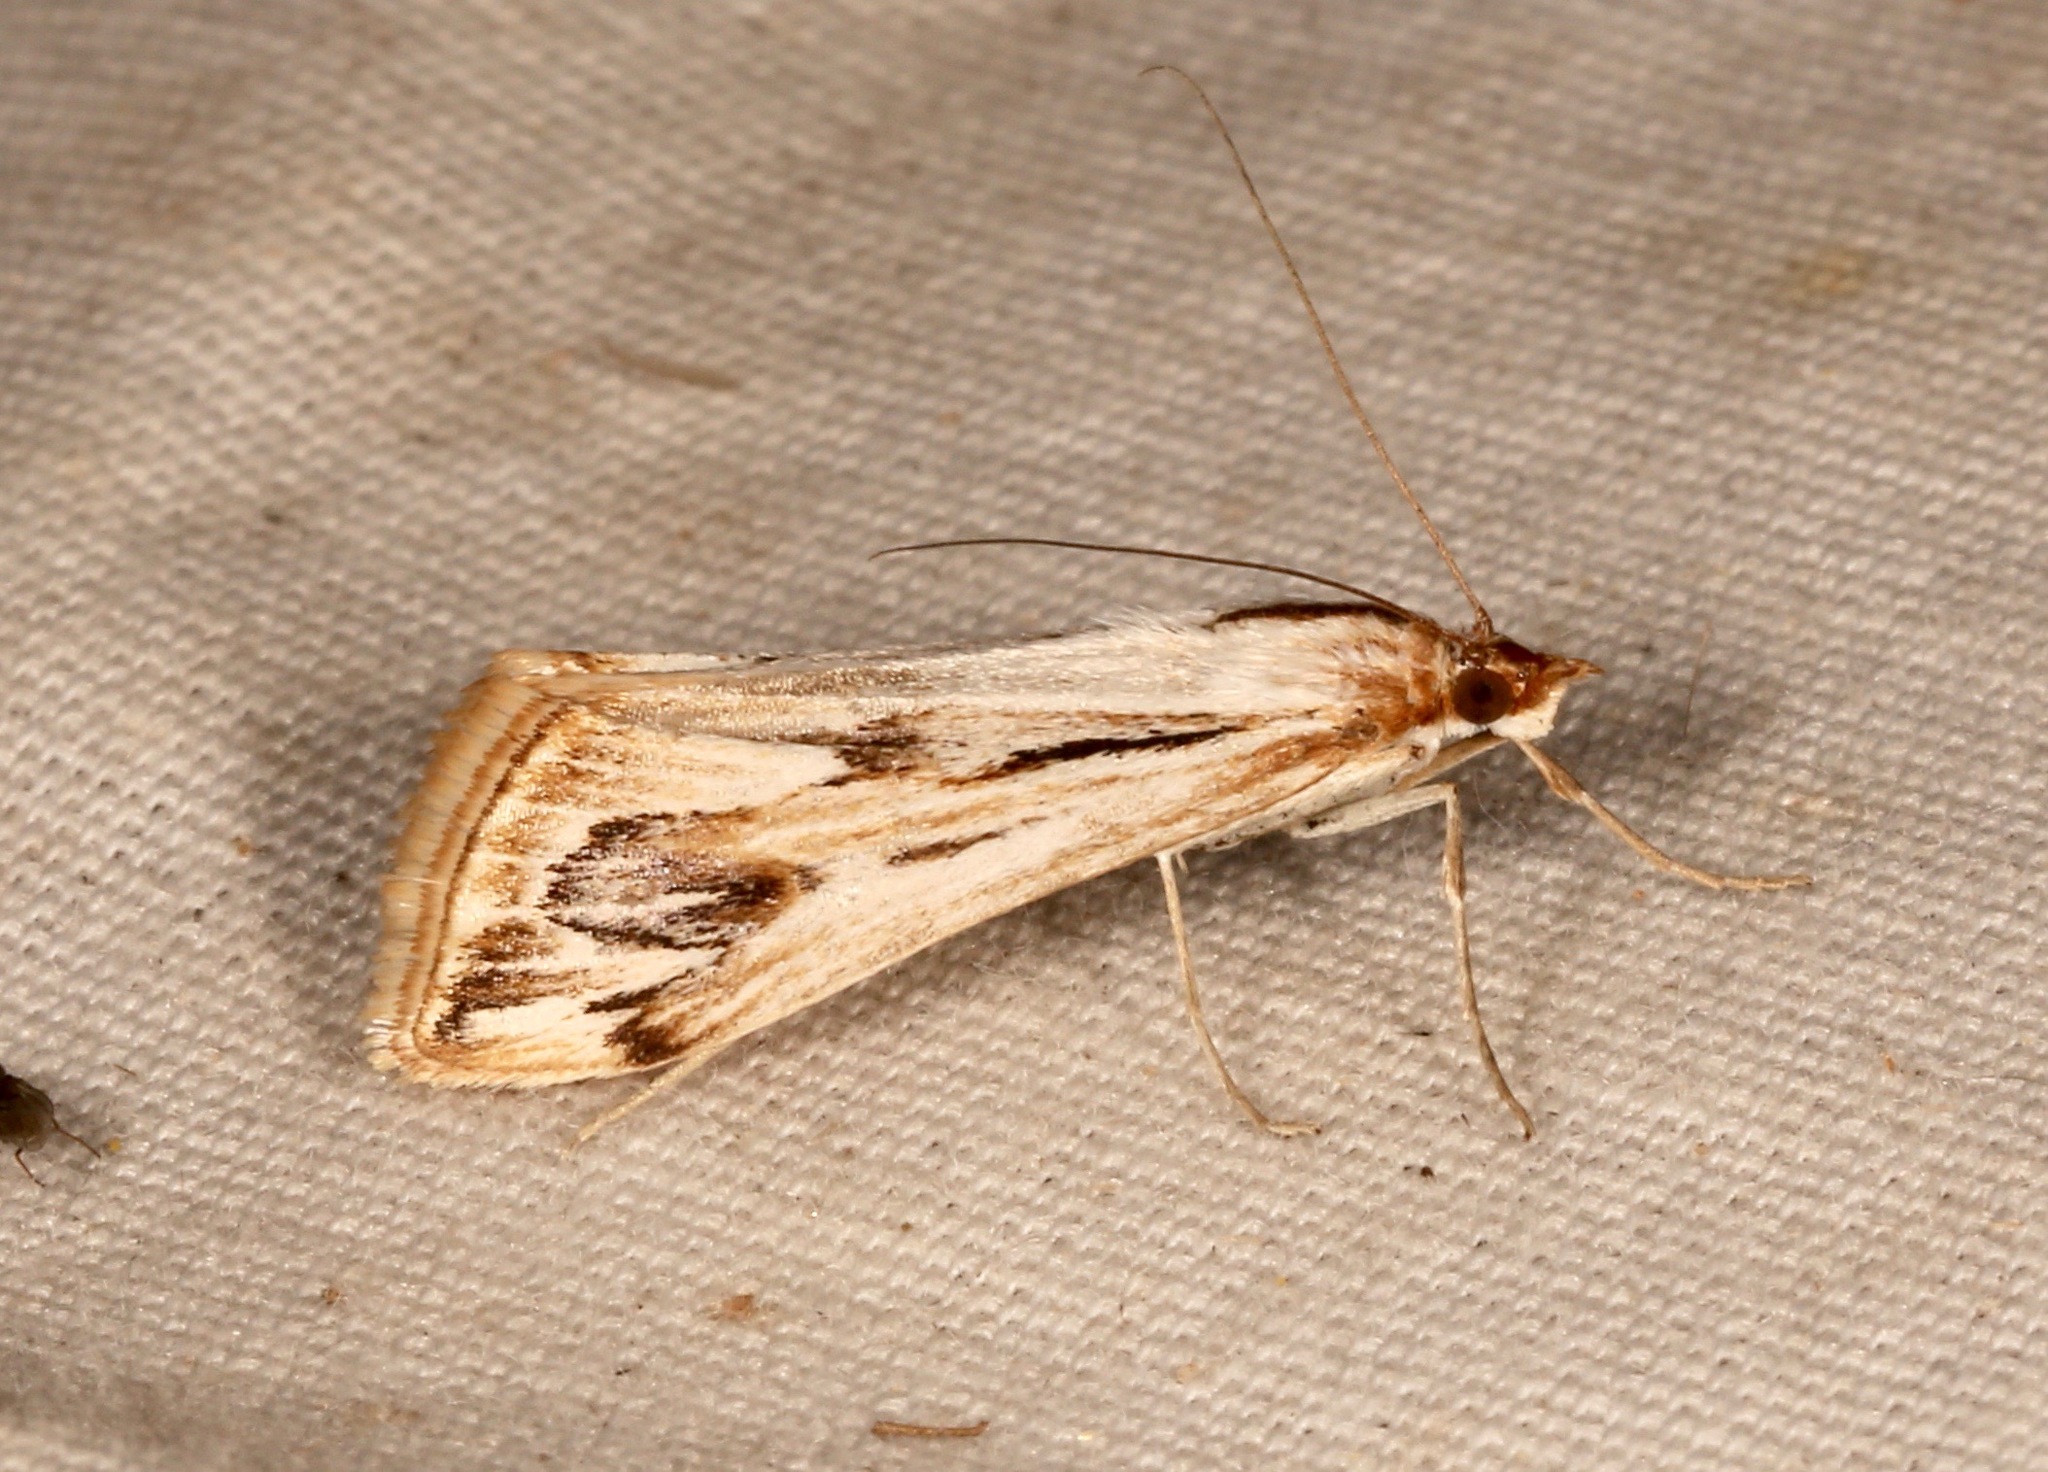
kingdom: Animalia
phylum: Arthropoda
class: Insecta
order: Lepidoptera
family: Crambidae
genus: Loxostege
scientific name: Loxostege oberthuralis
